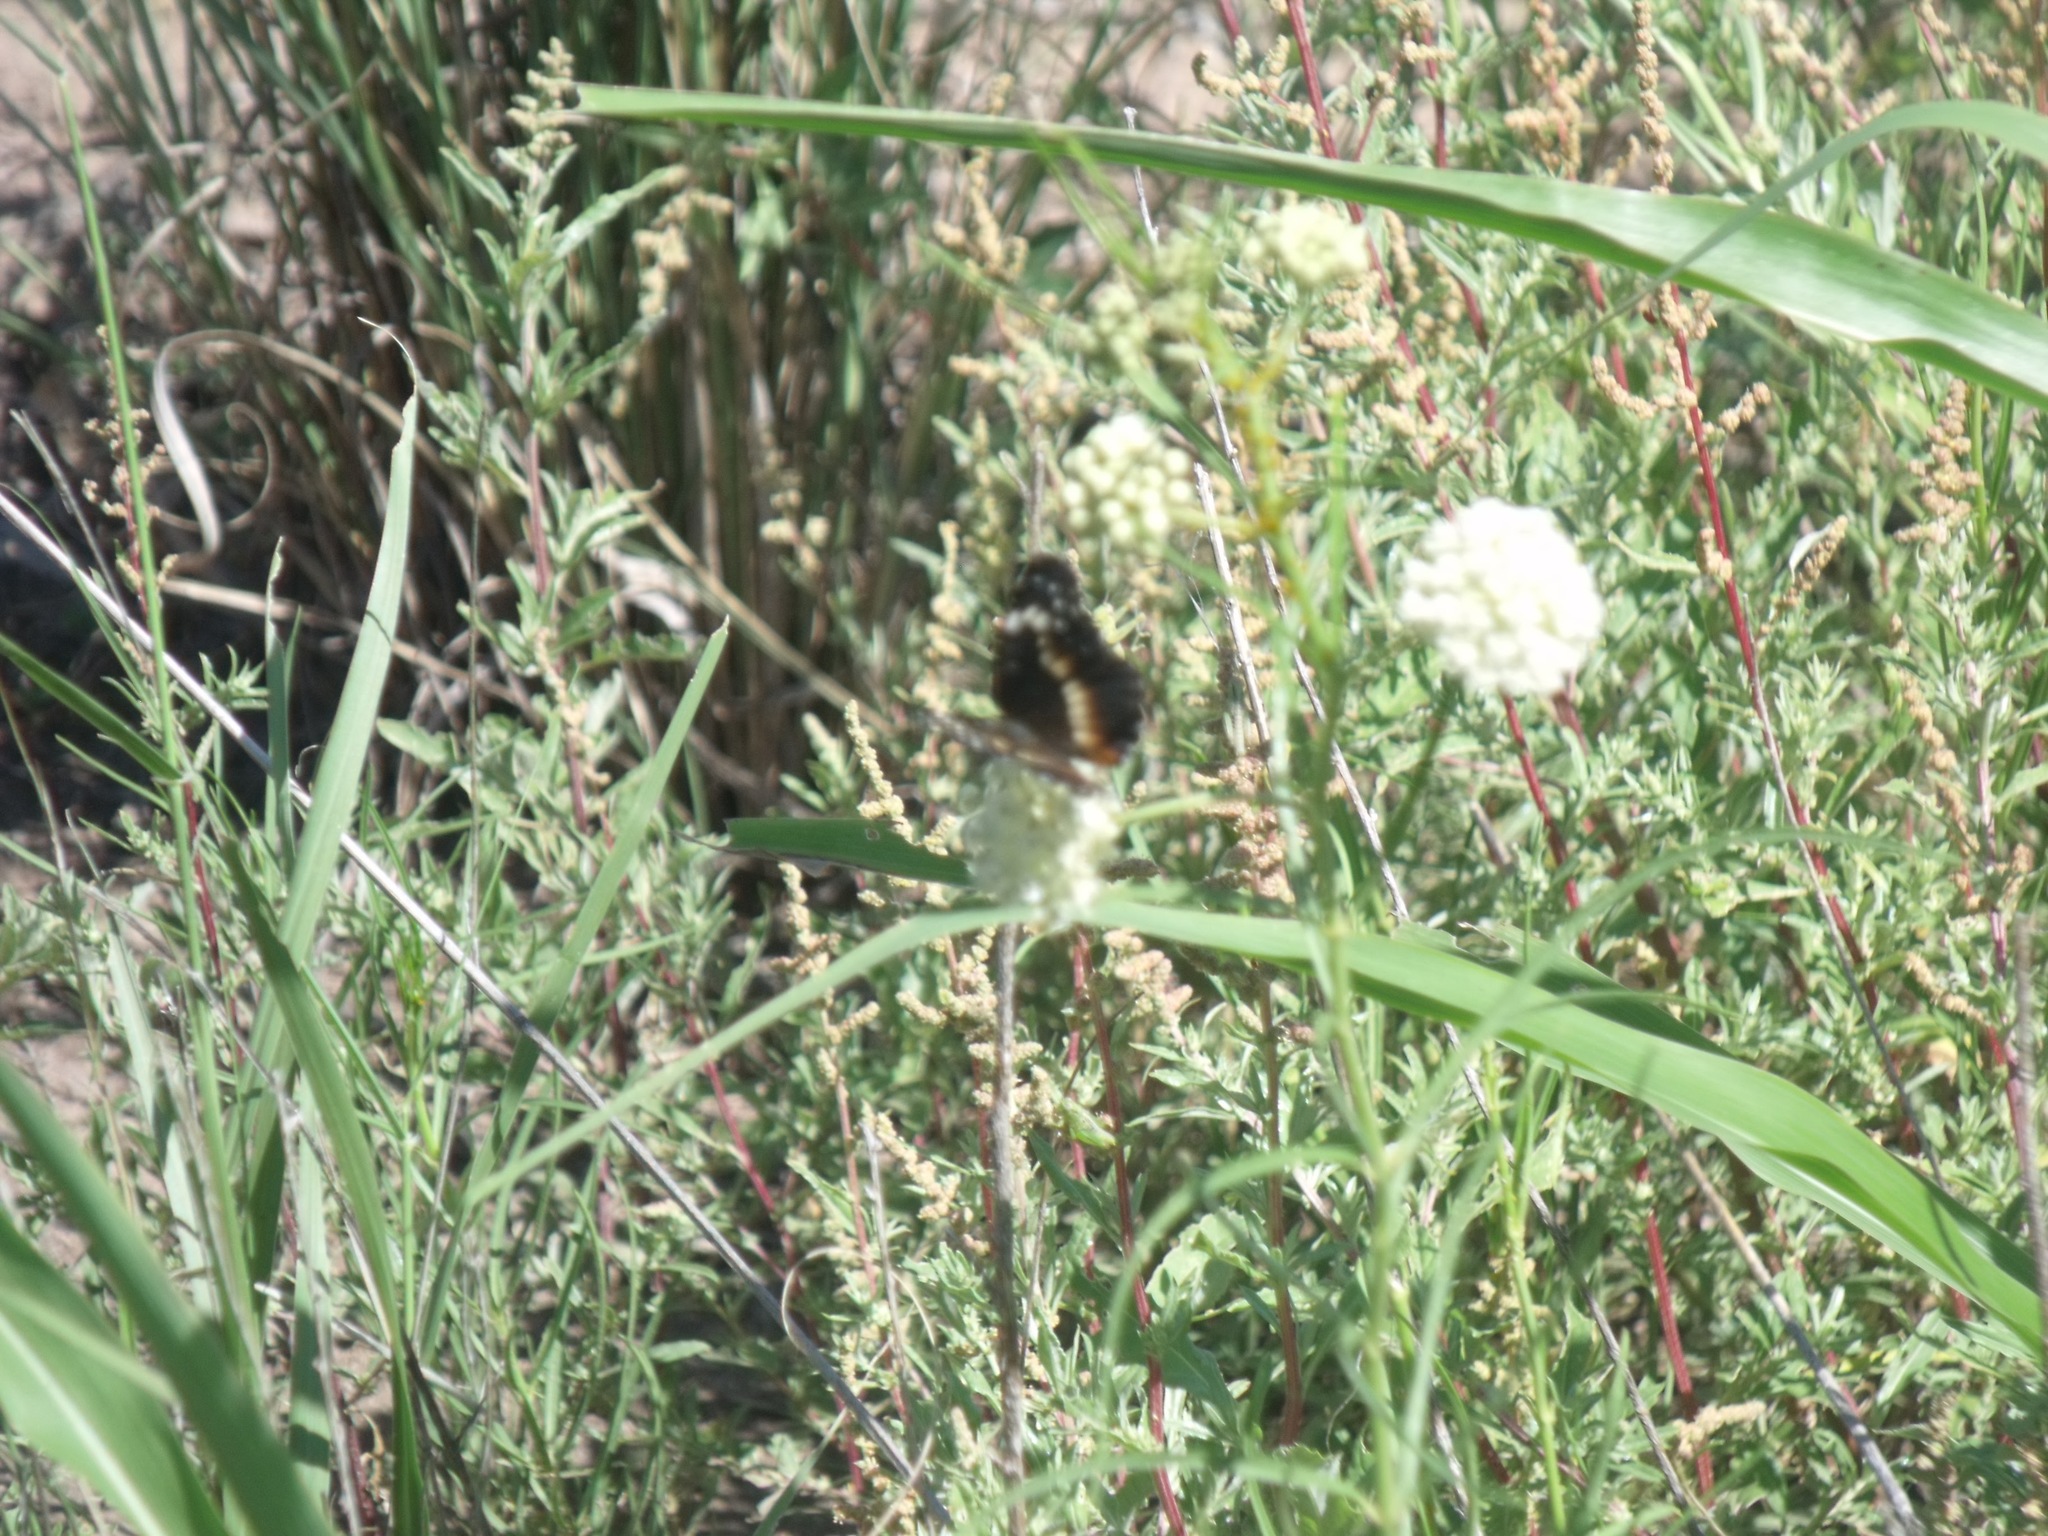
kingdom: Animalia
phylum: Arthropoda
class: Insecta
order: Lepidoptera
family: Nymphalidae
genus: Chlosyne
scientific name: Chlosyne lacinia
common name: Bordered patch
